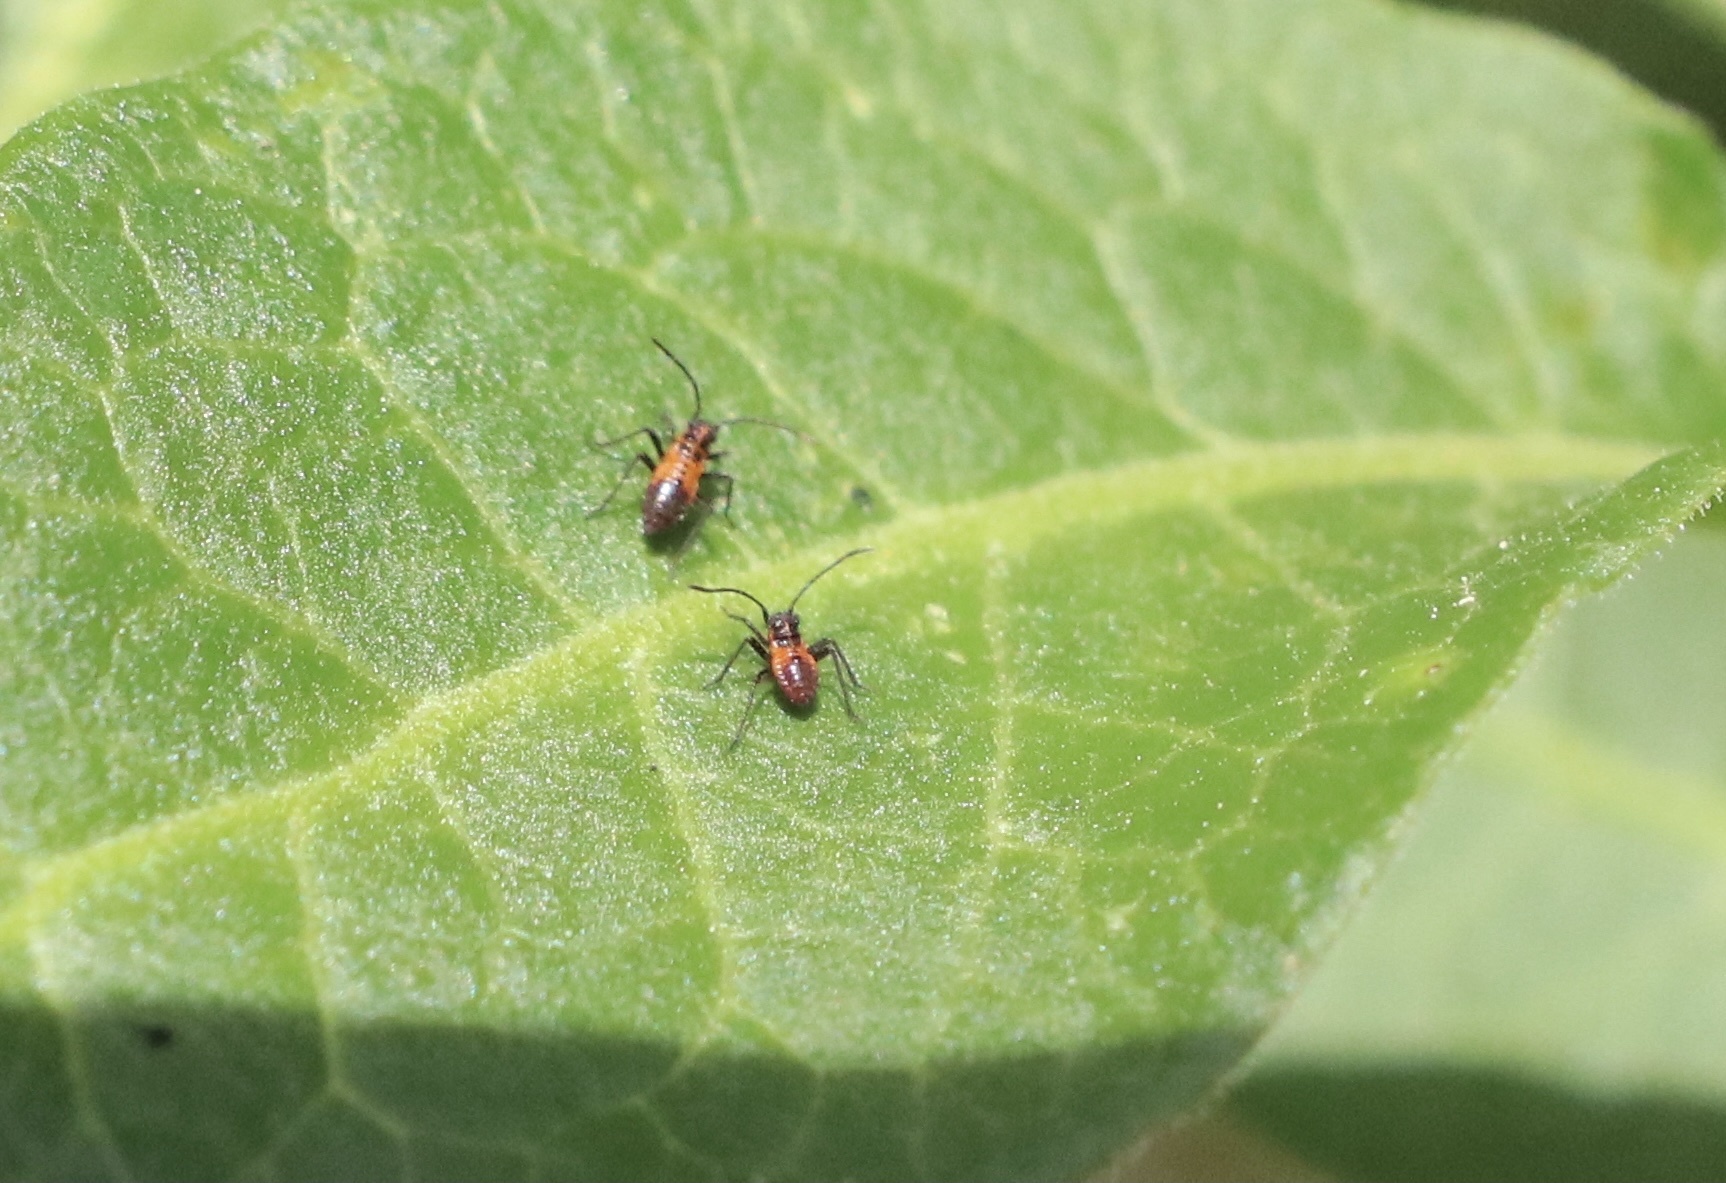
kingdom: Animalia
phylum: Arthropoda
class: Insecta
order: Hemiptera
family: Miridae
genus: Eurylomata
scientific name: Eurylomata picturata
